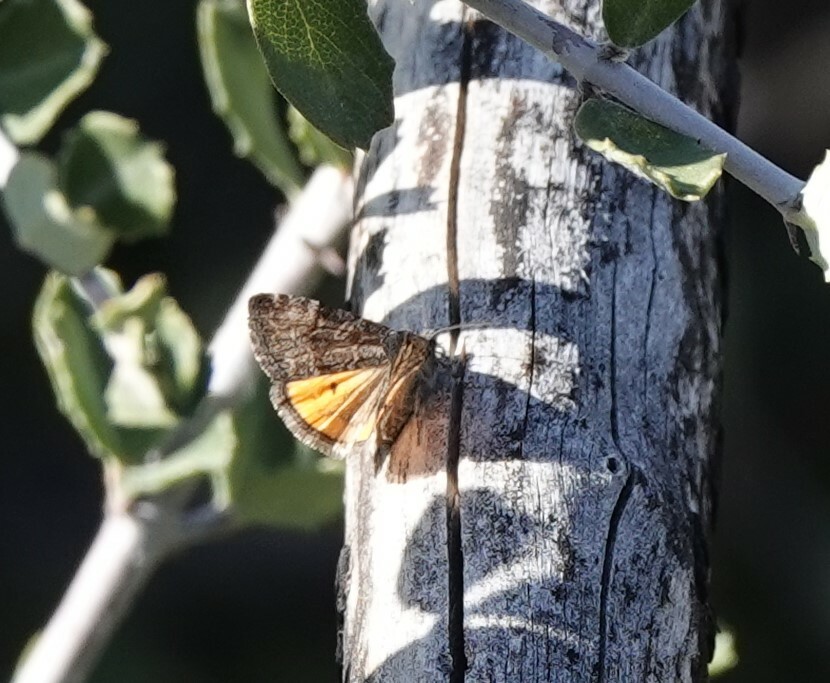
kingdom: Animalia
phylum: Arthropoda
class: Insecta
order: Lepidoptera
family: Noctuidae
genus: Annaphila
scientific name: Annaphila danistica
